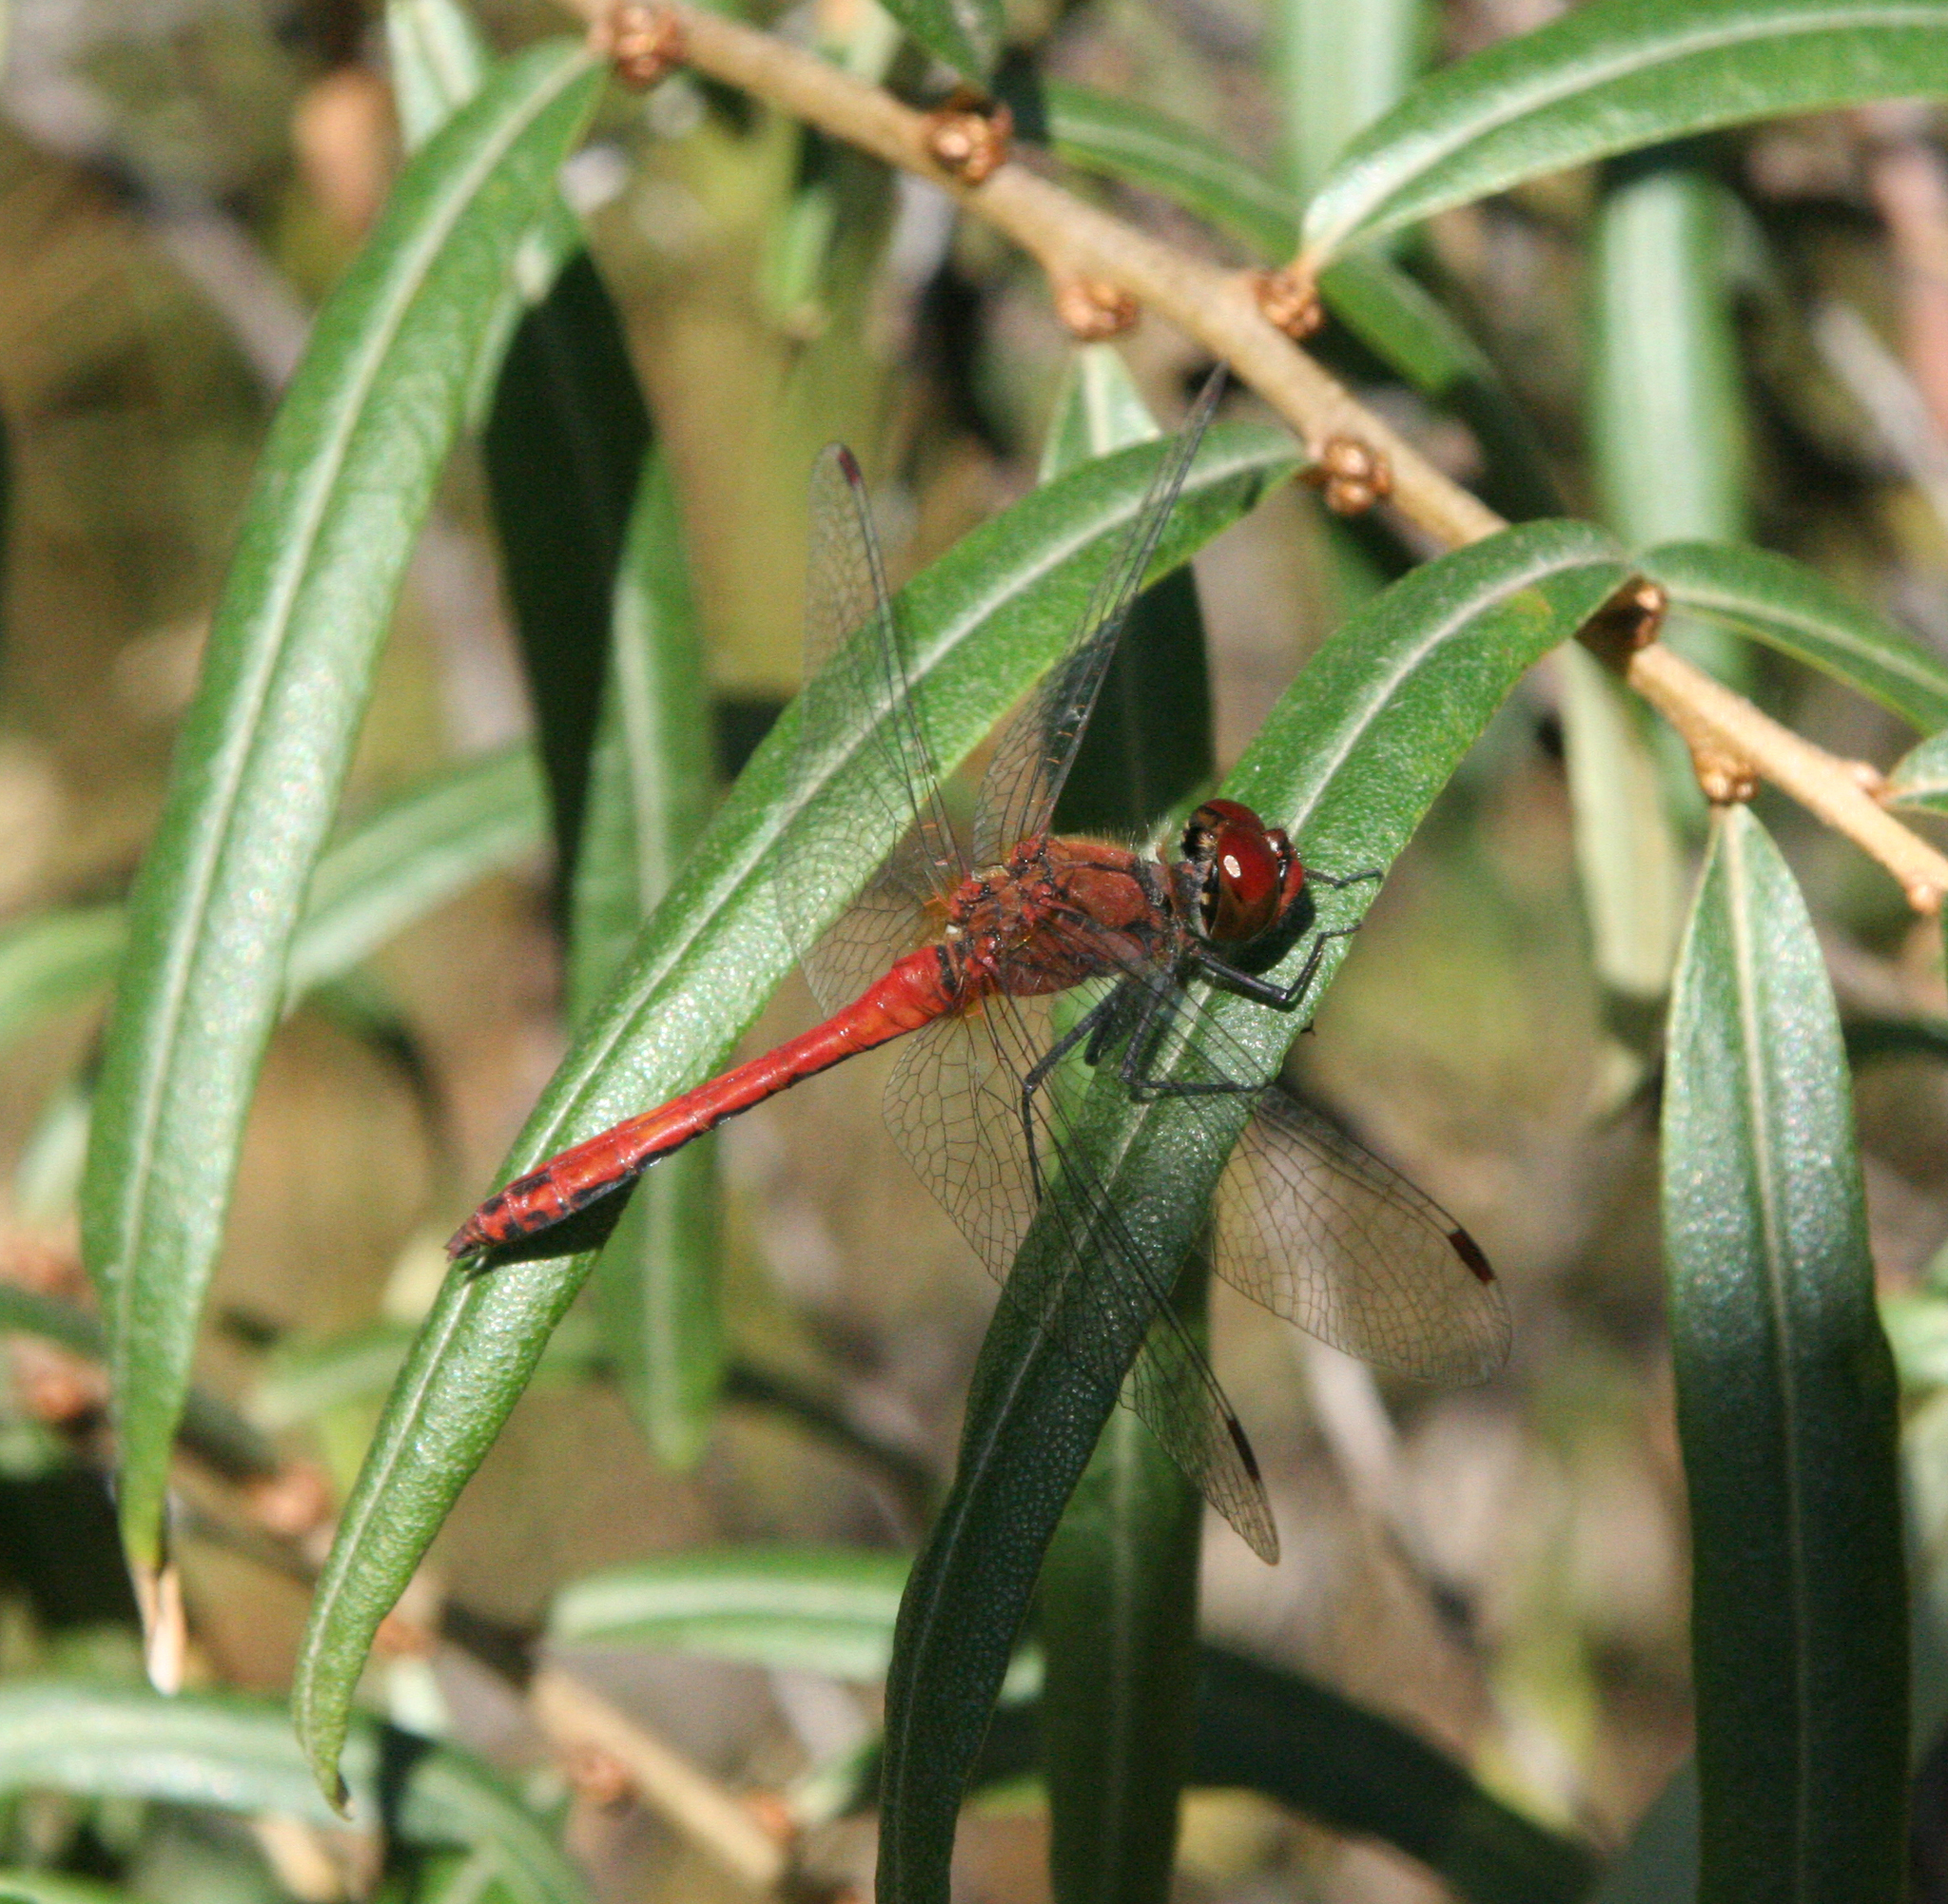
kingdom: Animalia
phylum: Arthropoda
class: Insecta
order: Odonata
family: Libellulidae
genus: Sympetrum
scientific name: Sympetrum sanguineum
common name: Ruddy darter
